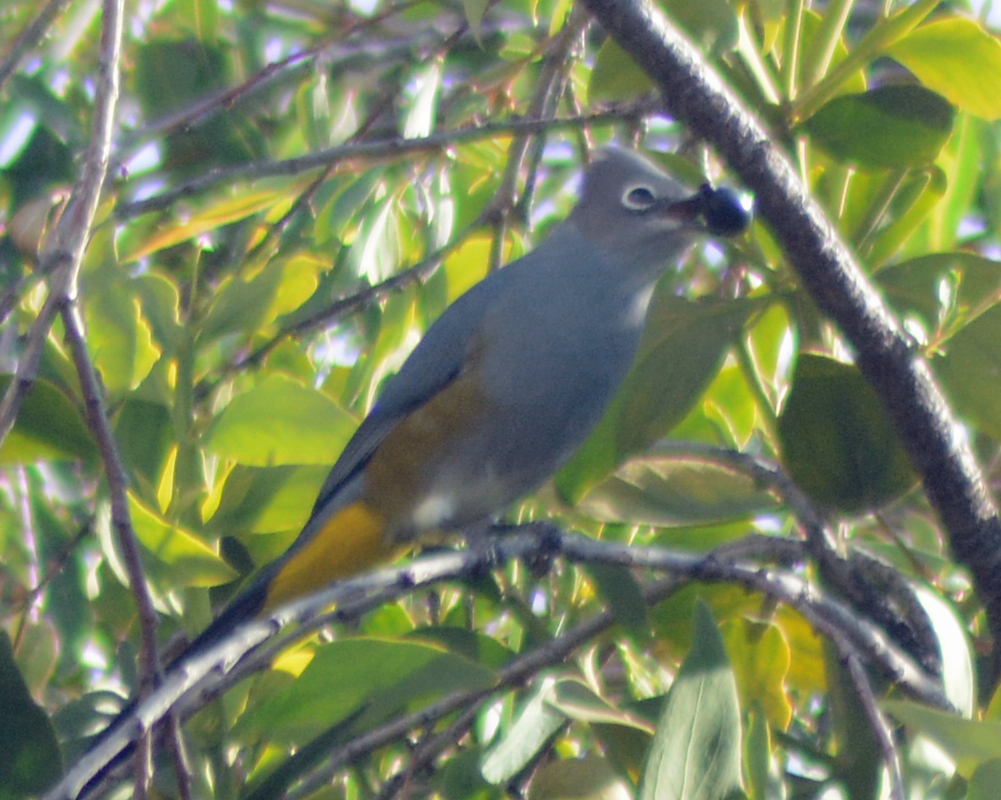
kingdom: Animalia
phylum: Chordata
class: Aves
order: Passeriformes
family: Ptilogonatidae
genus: Ptilogonys
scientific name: Ptilogonys cinereus
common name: Gray silky-flycatcher
